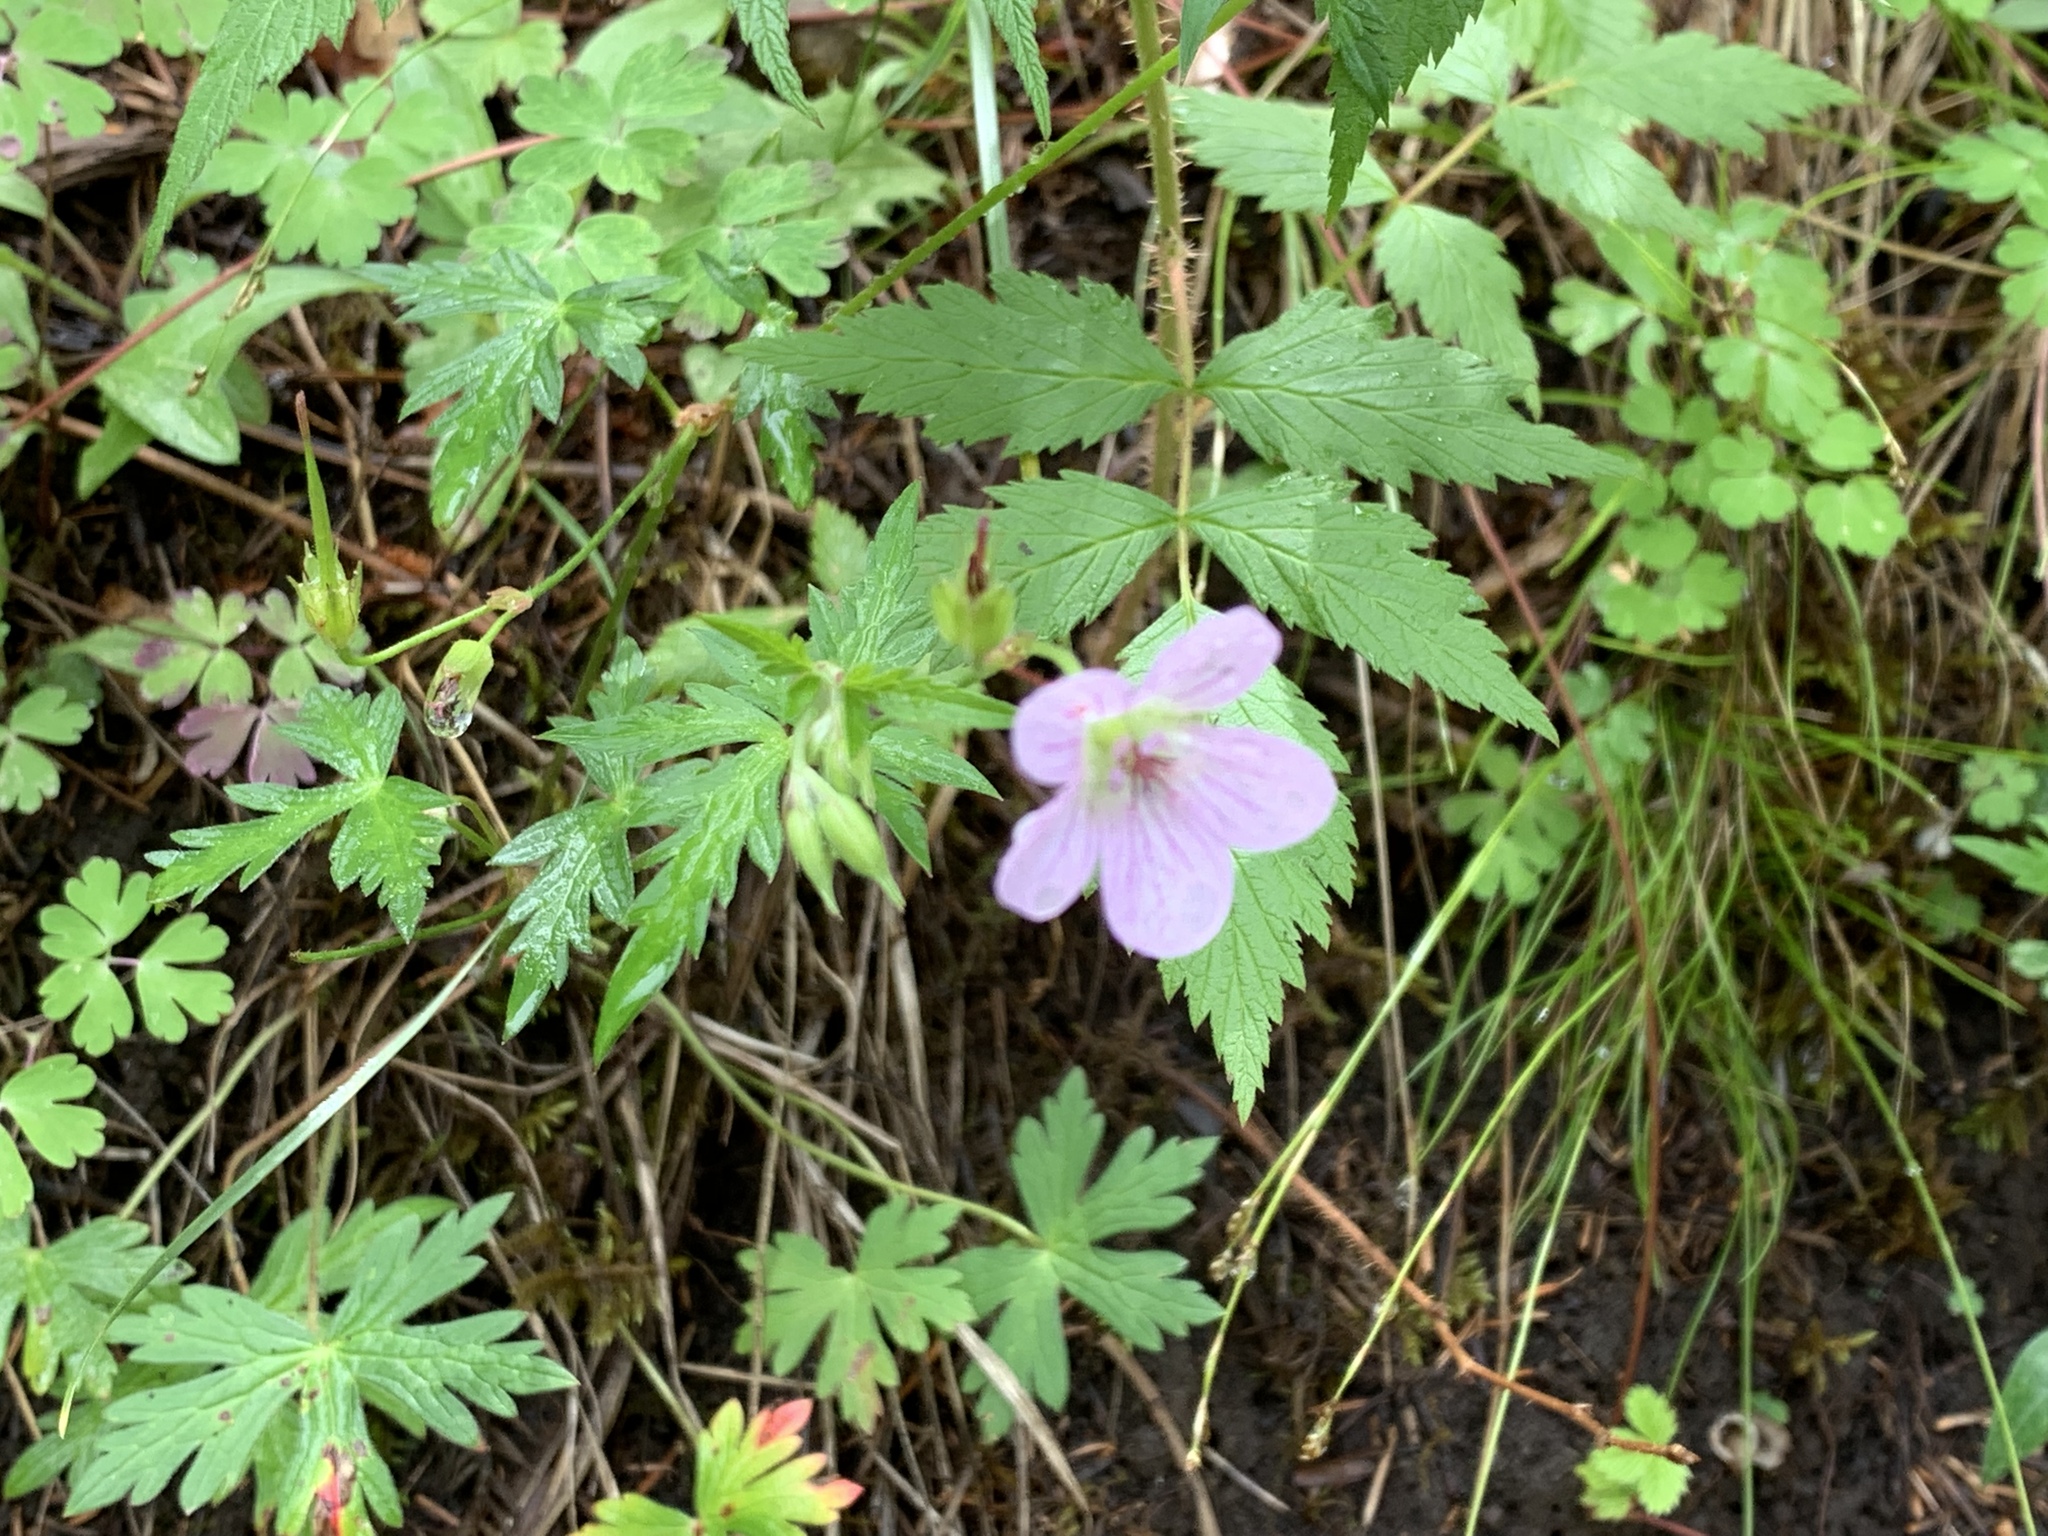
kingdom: Plantae
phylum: Tracheophyta
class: Magnoliopsida
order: Geraniales
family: Geraniaceae
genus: Geranium
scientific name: Geranium richardsonii
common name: Richardson's crane's-bill
